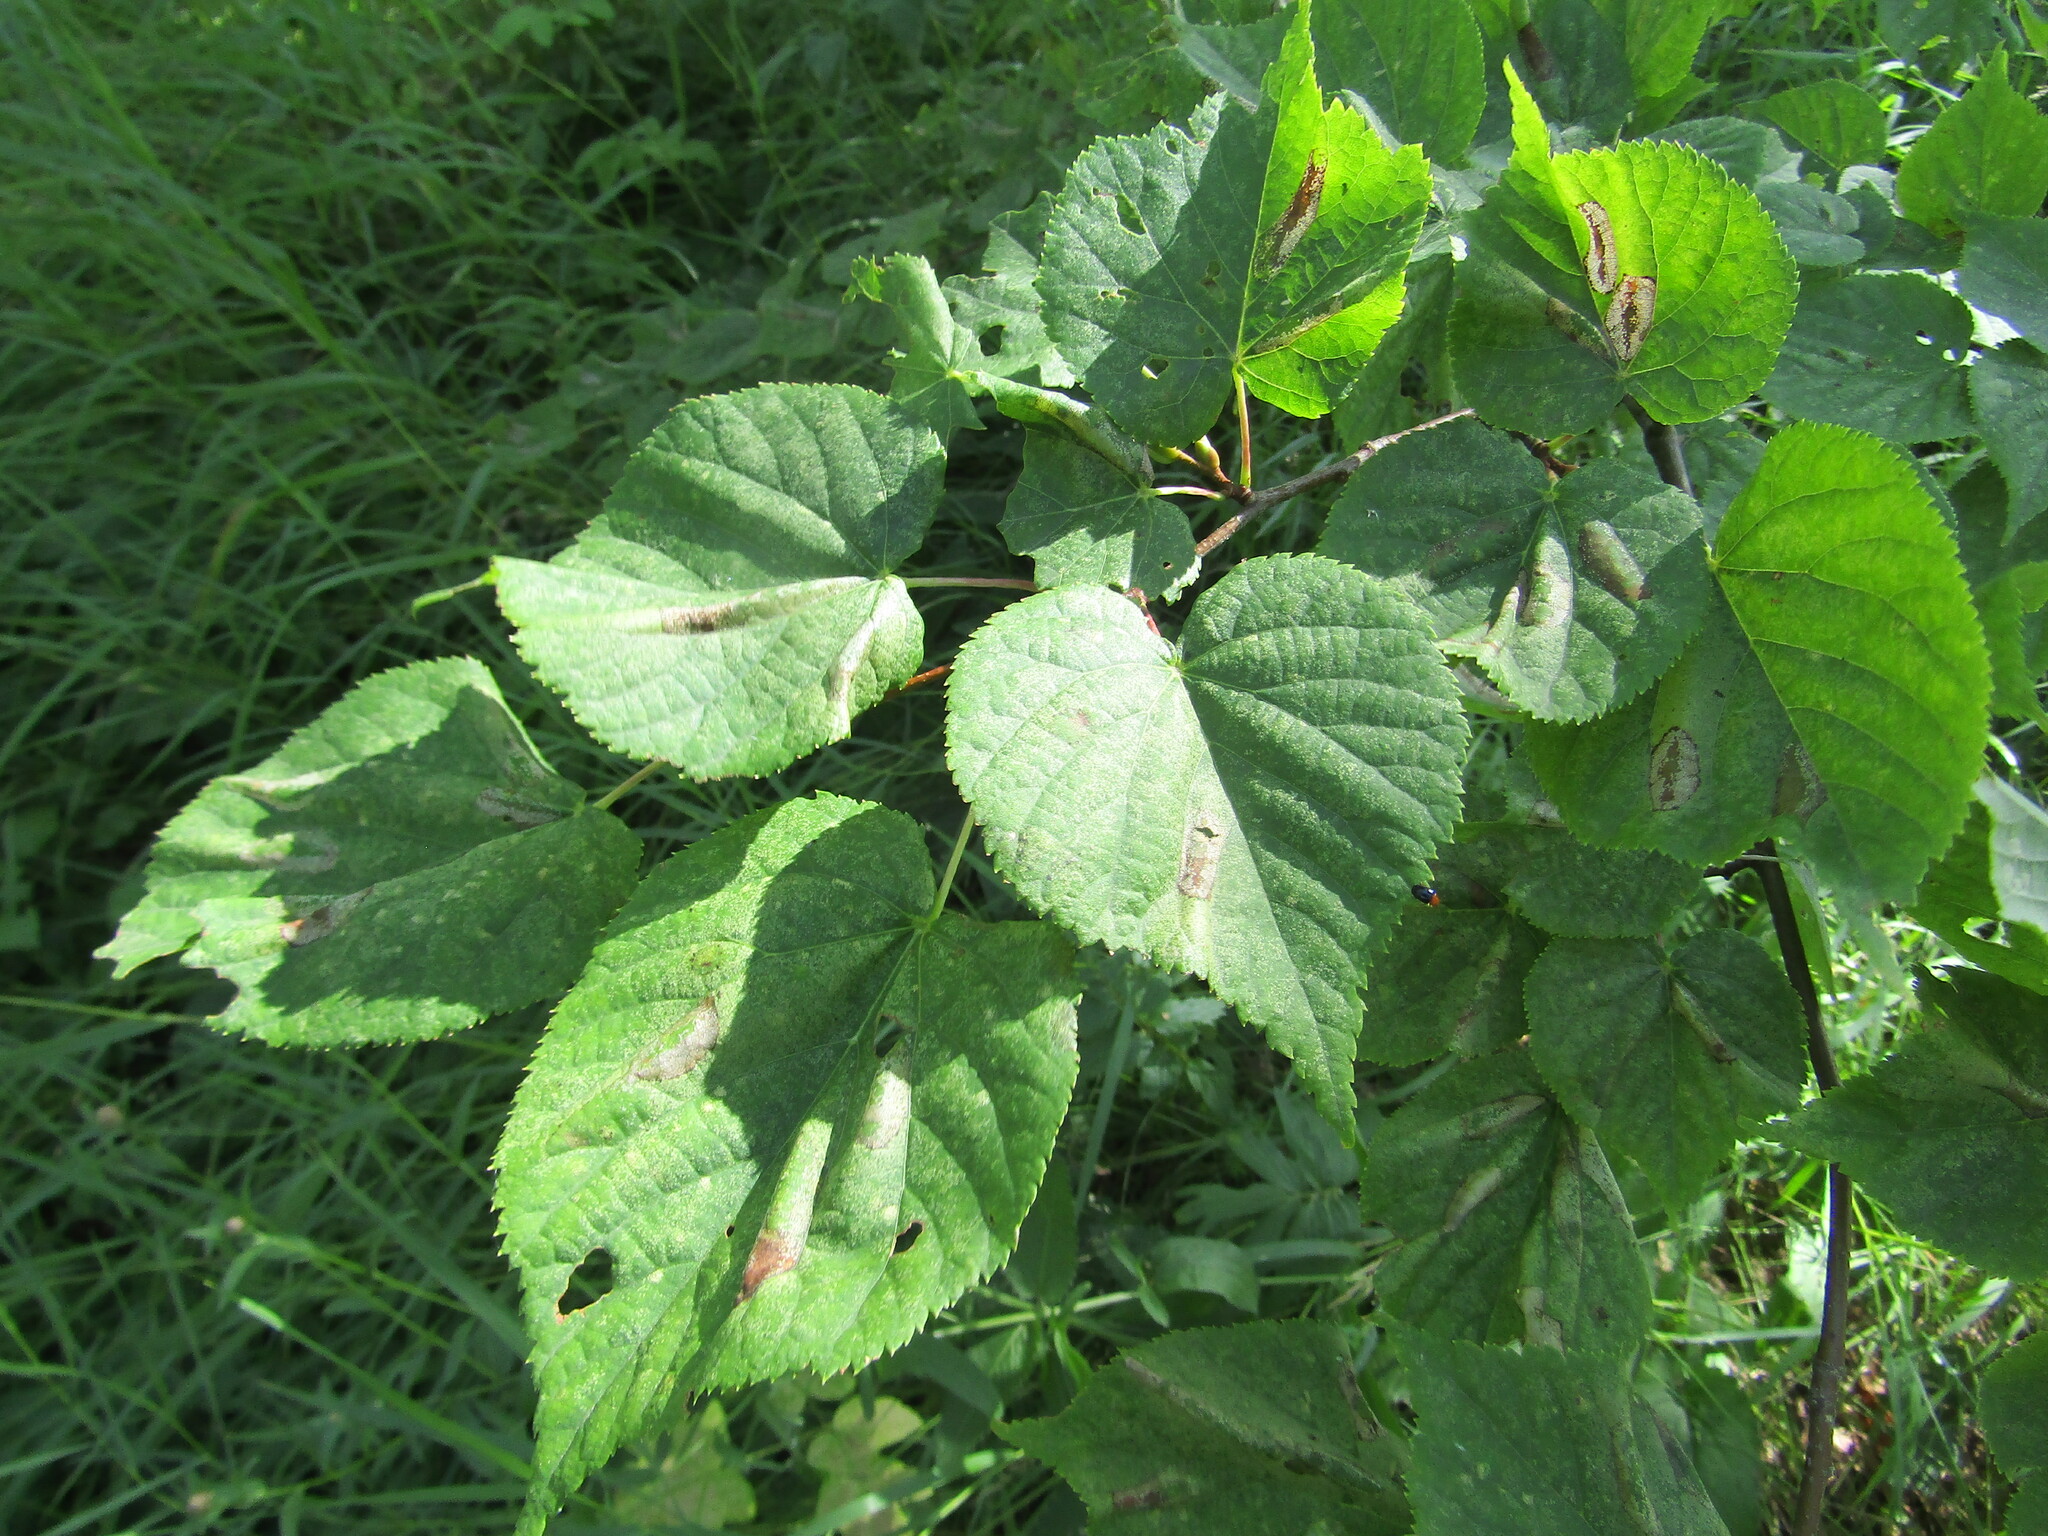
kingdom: Plantae
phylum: Tracheophyta
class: Magnoliopsida
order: Malvales
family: Malvaceae
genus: Tilia
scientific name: Tilia cordata
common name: Small-leaved lime
